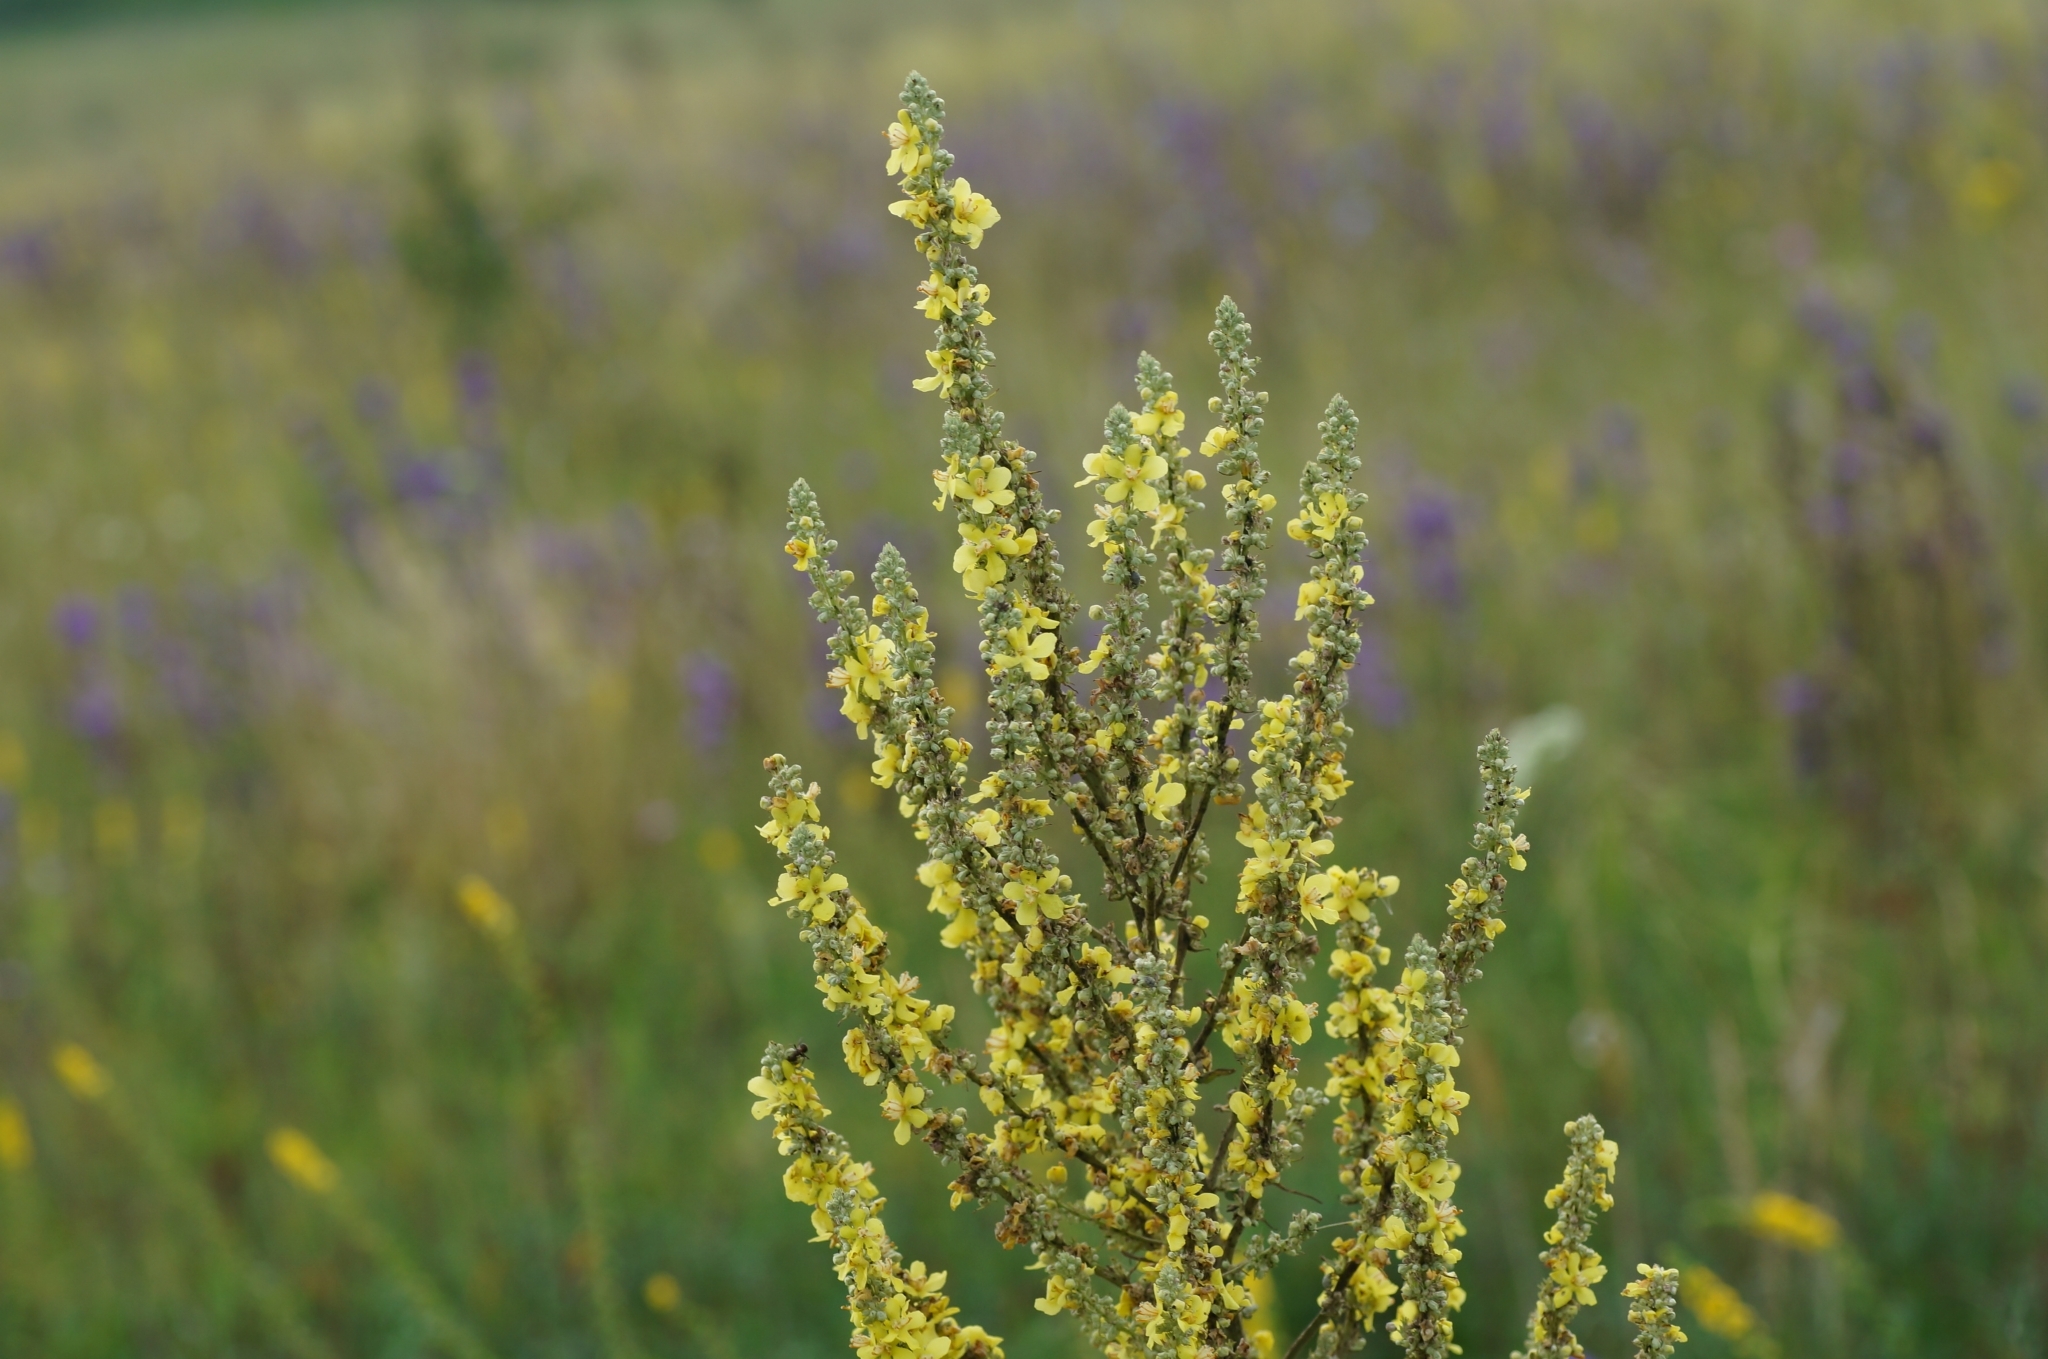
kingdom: Plantae
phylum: Tracheophyta
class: Magnoliopsida
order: Lamiales
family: Scrophulariaceae
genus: Verbascum
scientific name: Verbascum lychnitis
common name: White mullein
